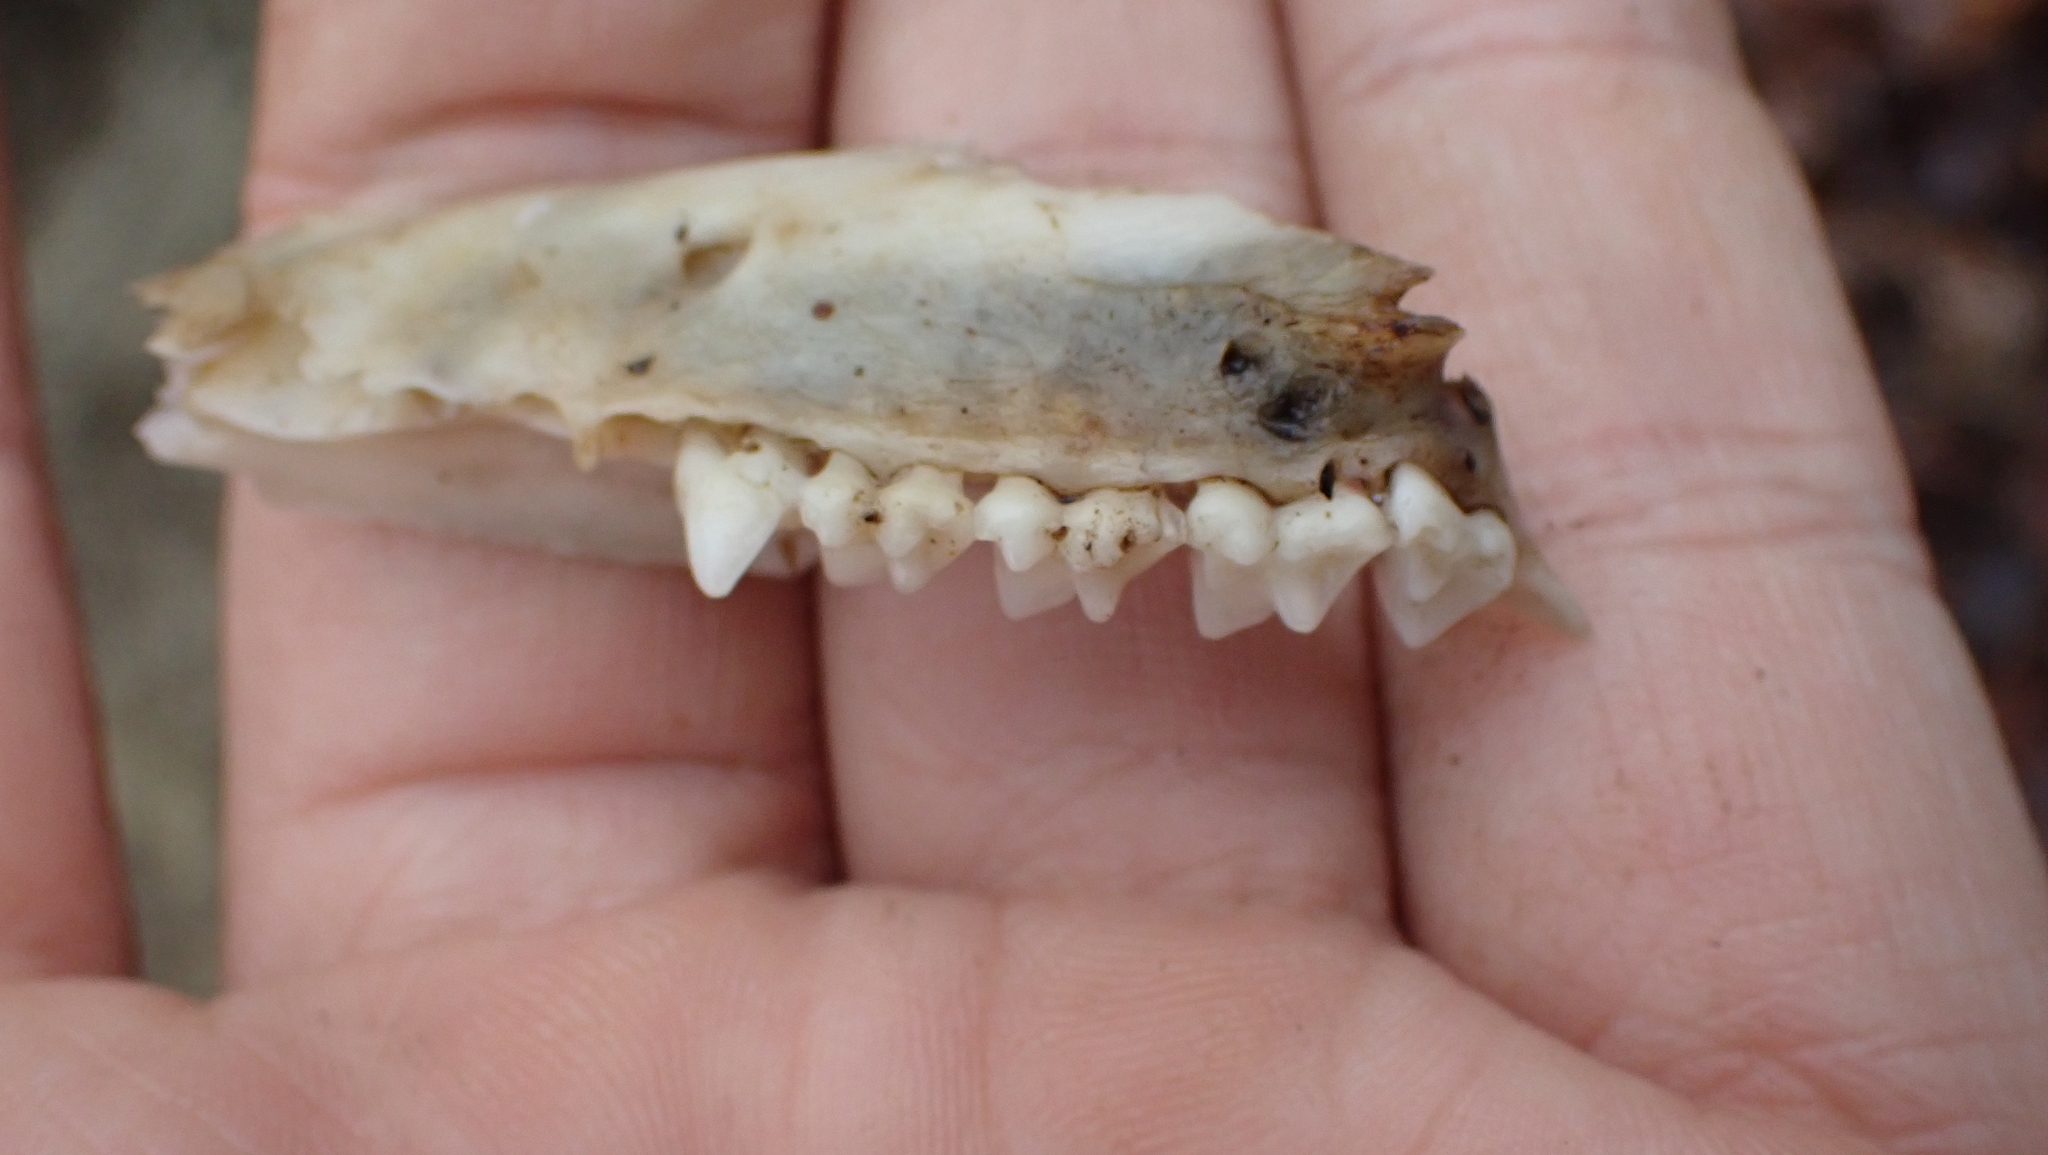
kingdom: Animalia
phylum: Chordata
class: Mammalia
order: Didelphimorphia
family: Didelphidae
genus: Didelphis
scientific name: Didelphis virginiana
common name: Virginia opossum
